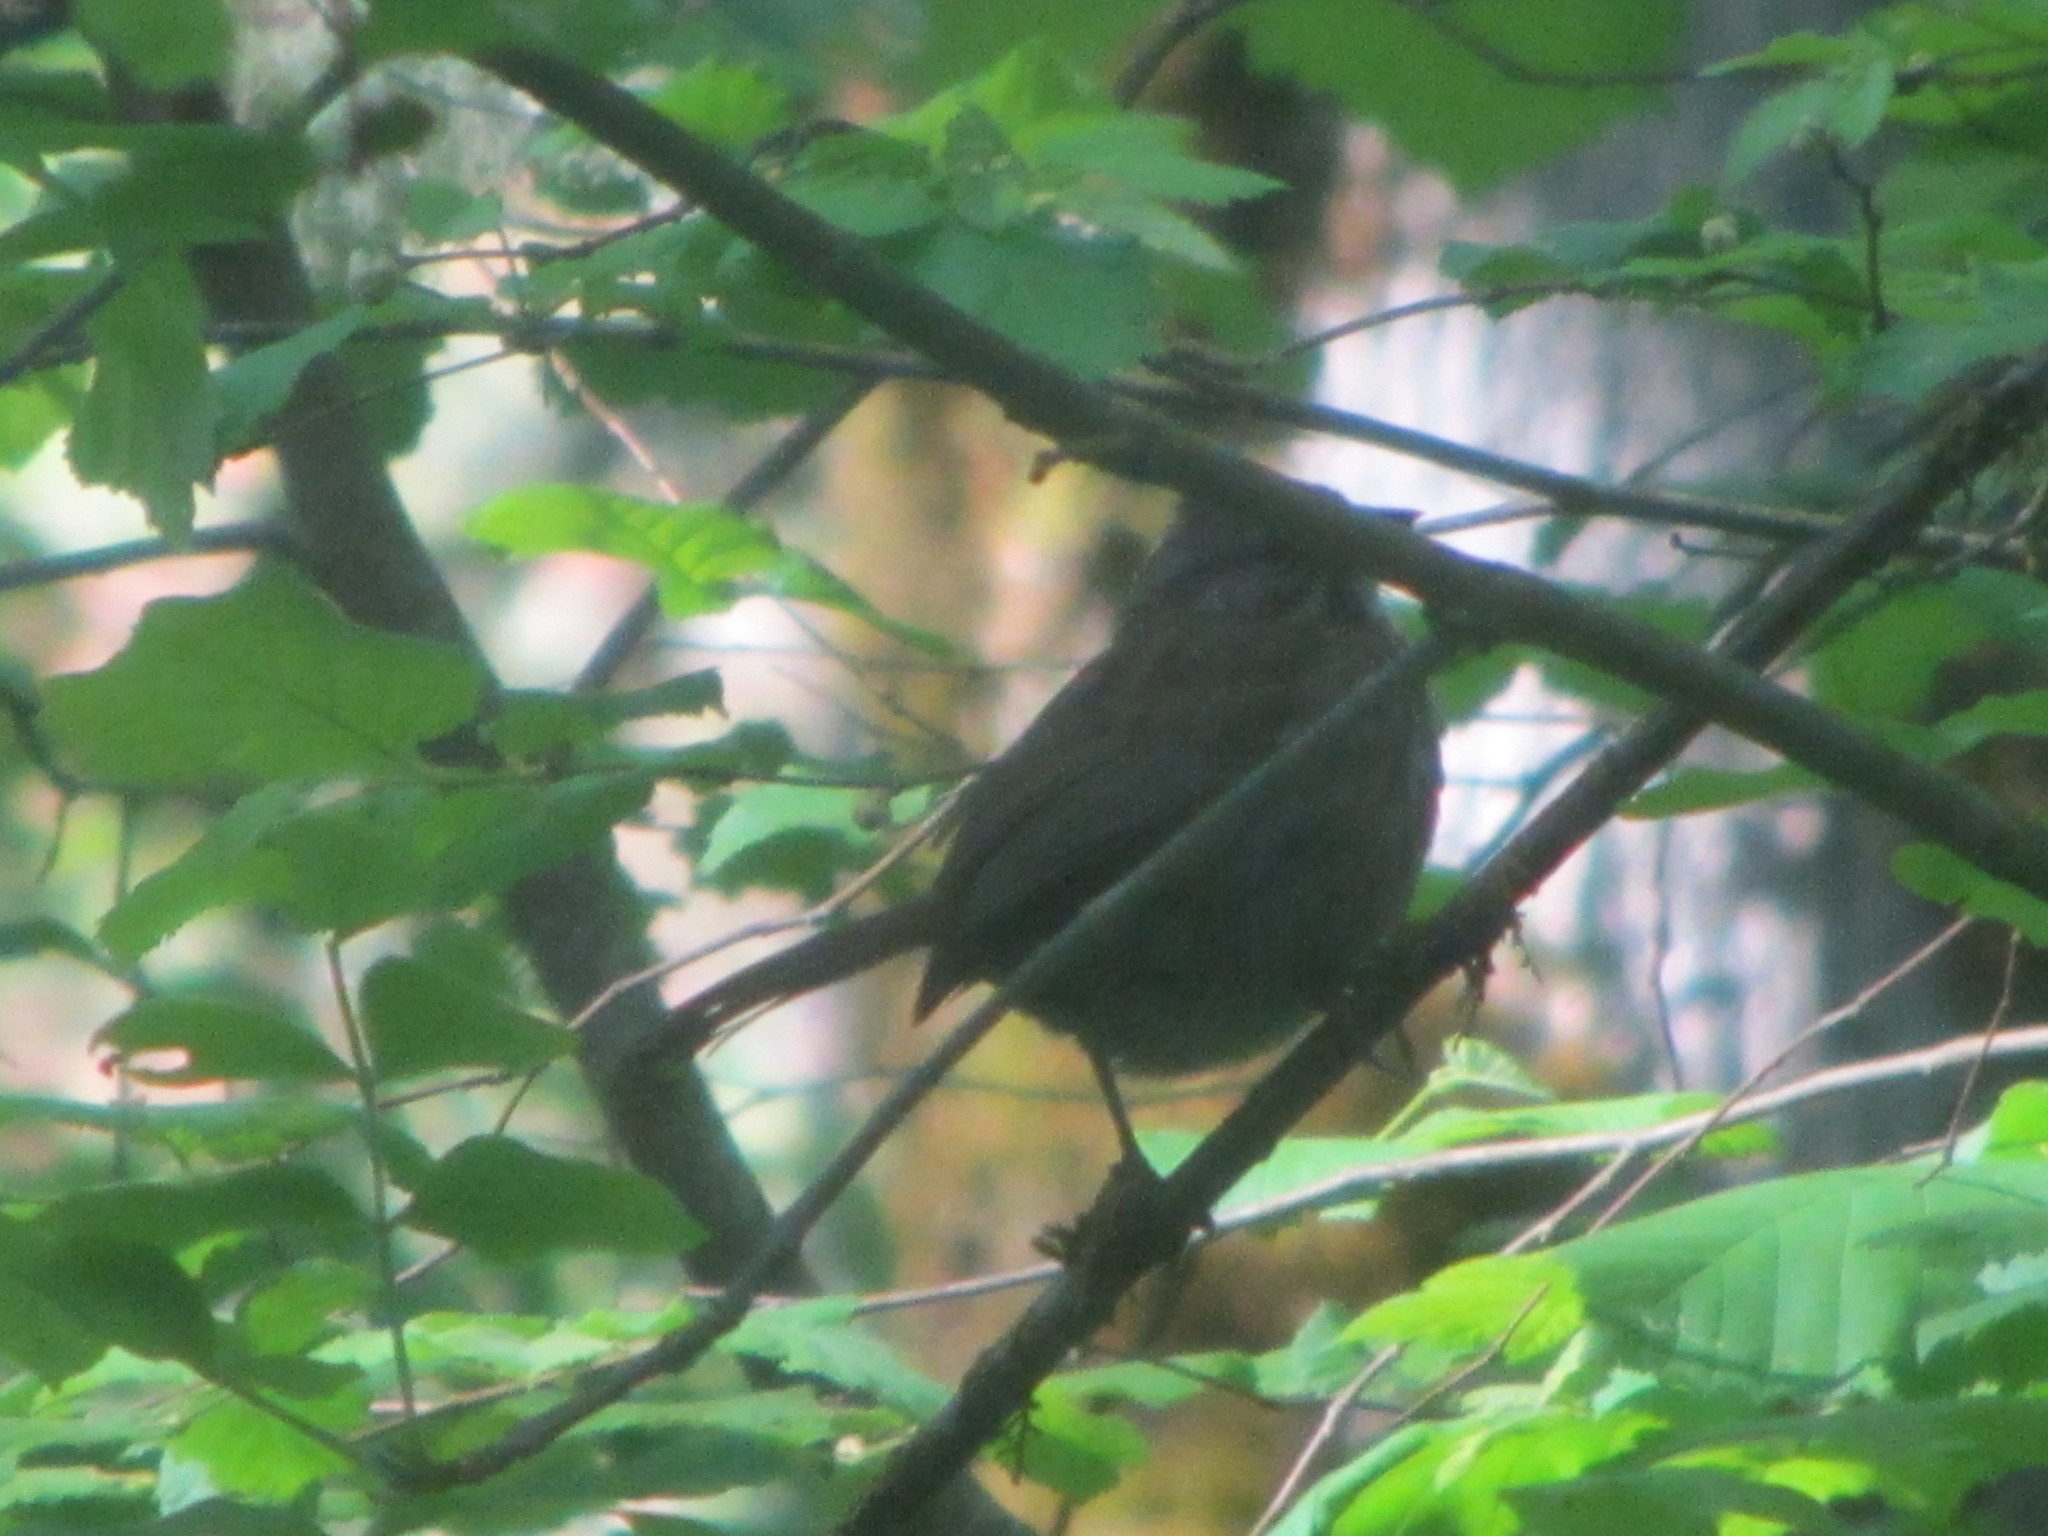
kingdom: Animalia
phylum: Chordata
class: Aves
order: Passeriformes
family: Passerellidae
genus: Melospiza
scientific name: Melospiza melodia
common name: Song sparrow
